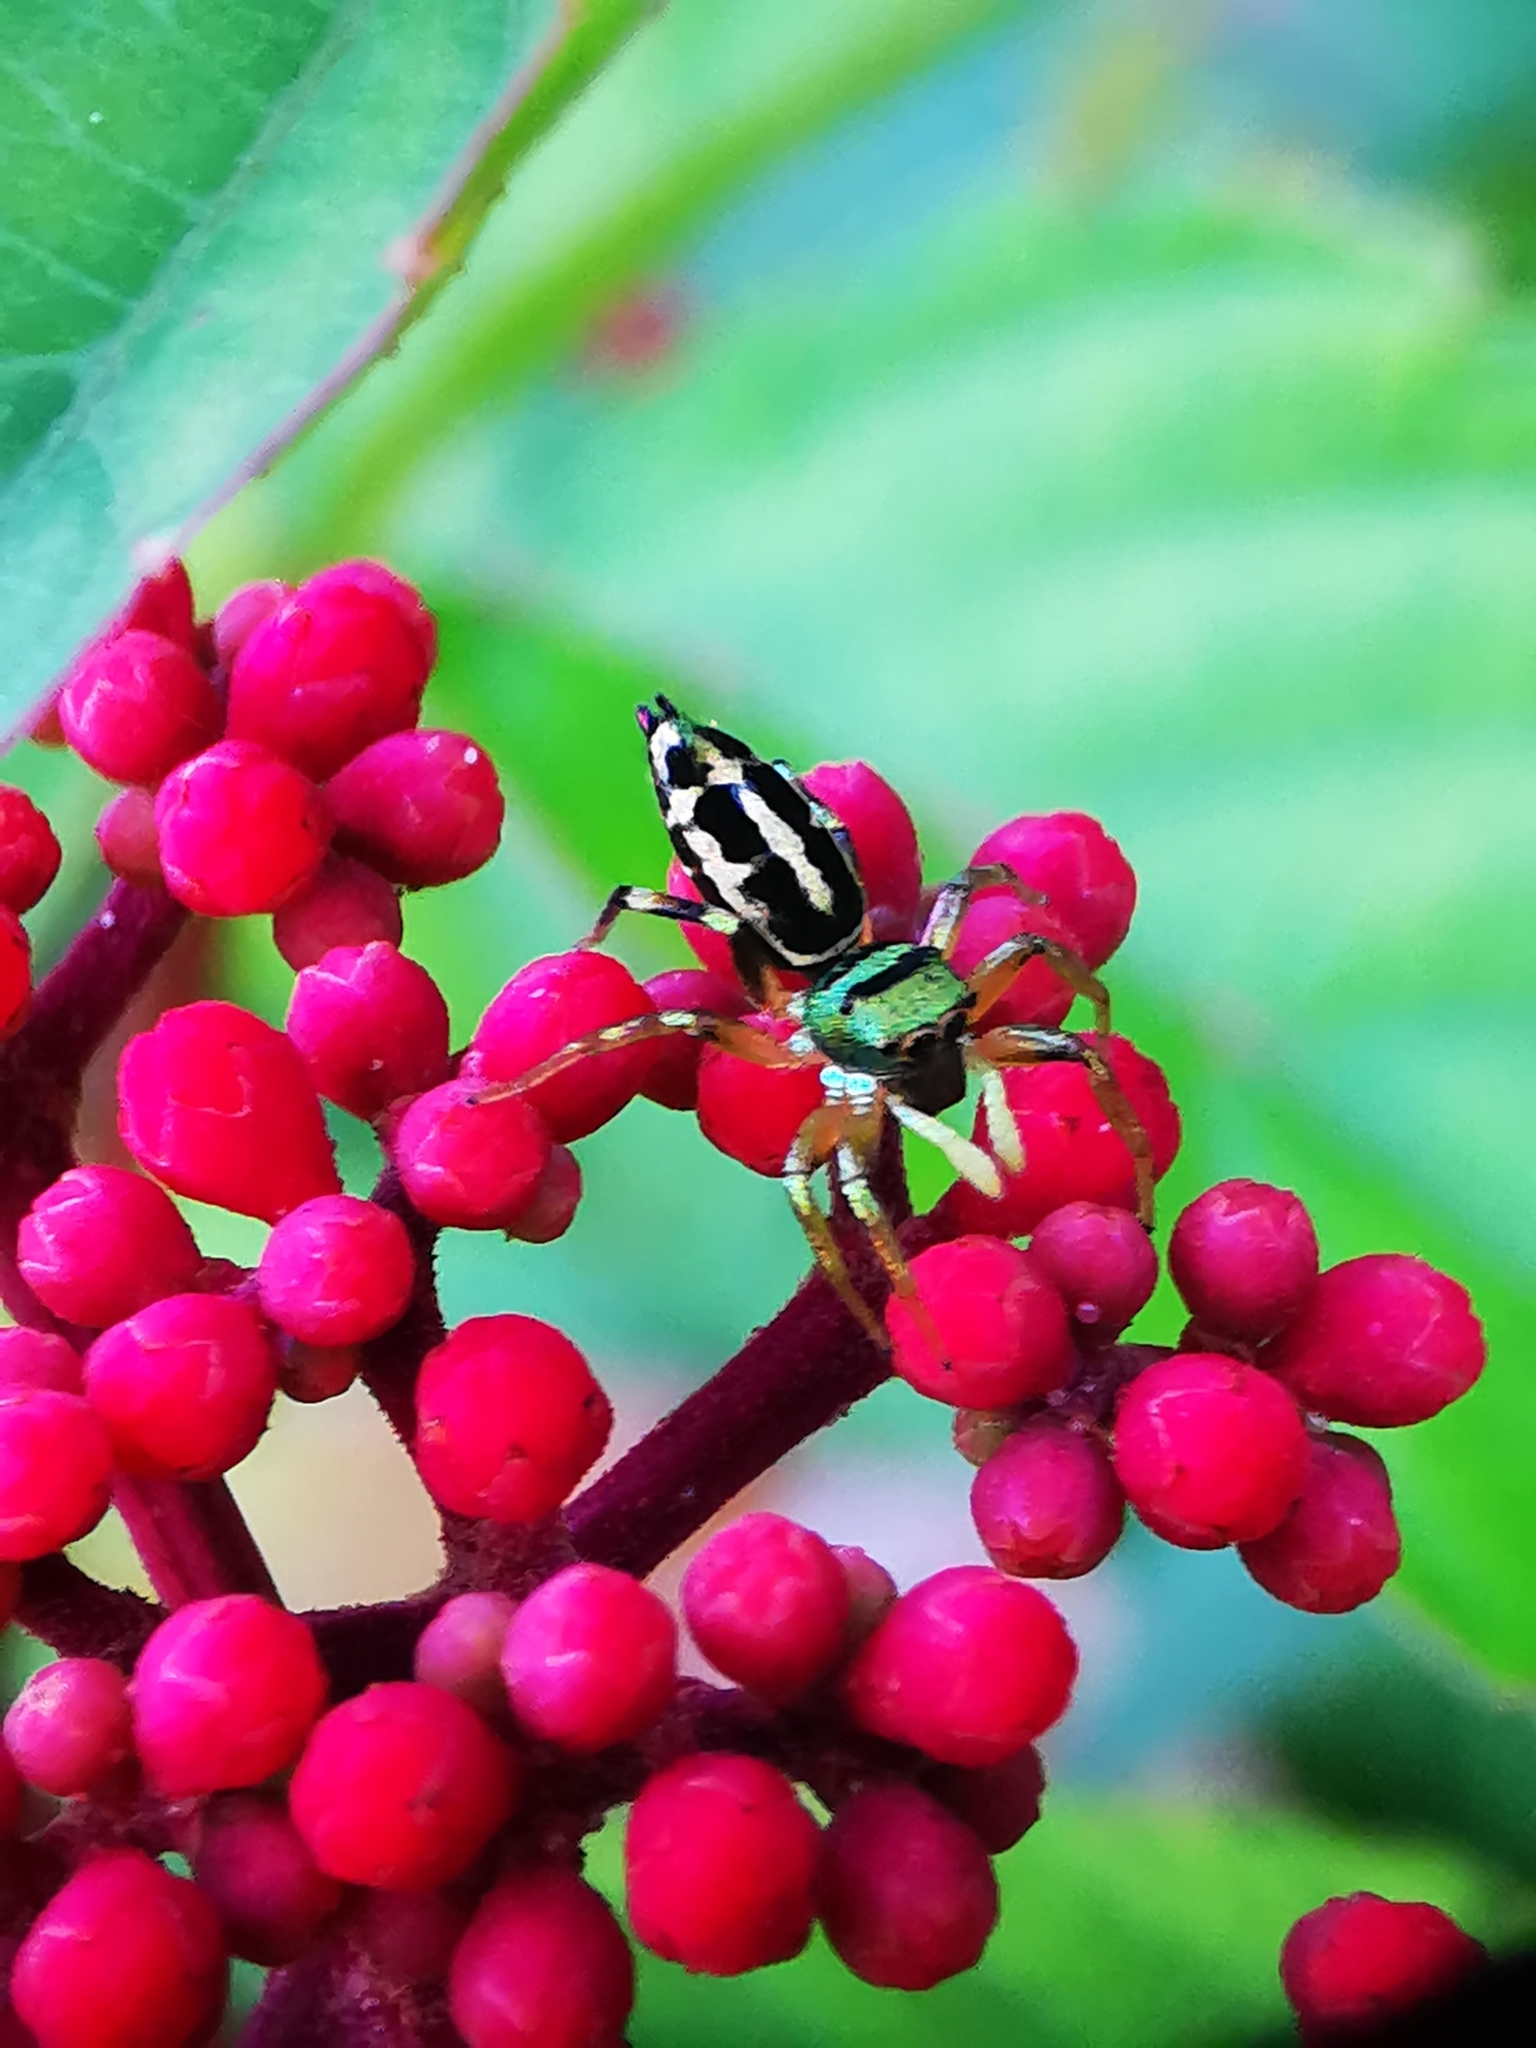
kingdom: Animalia
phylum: Arthropoda
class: Arachnida
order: Araneae
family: Salticidae
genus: Cosmophasis
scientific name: Cosmophasis thalassina
